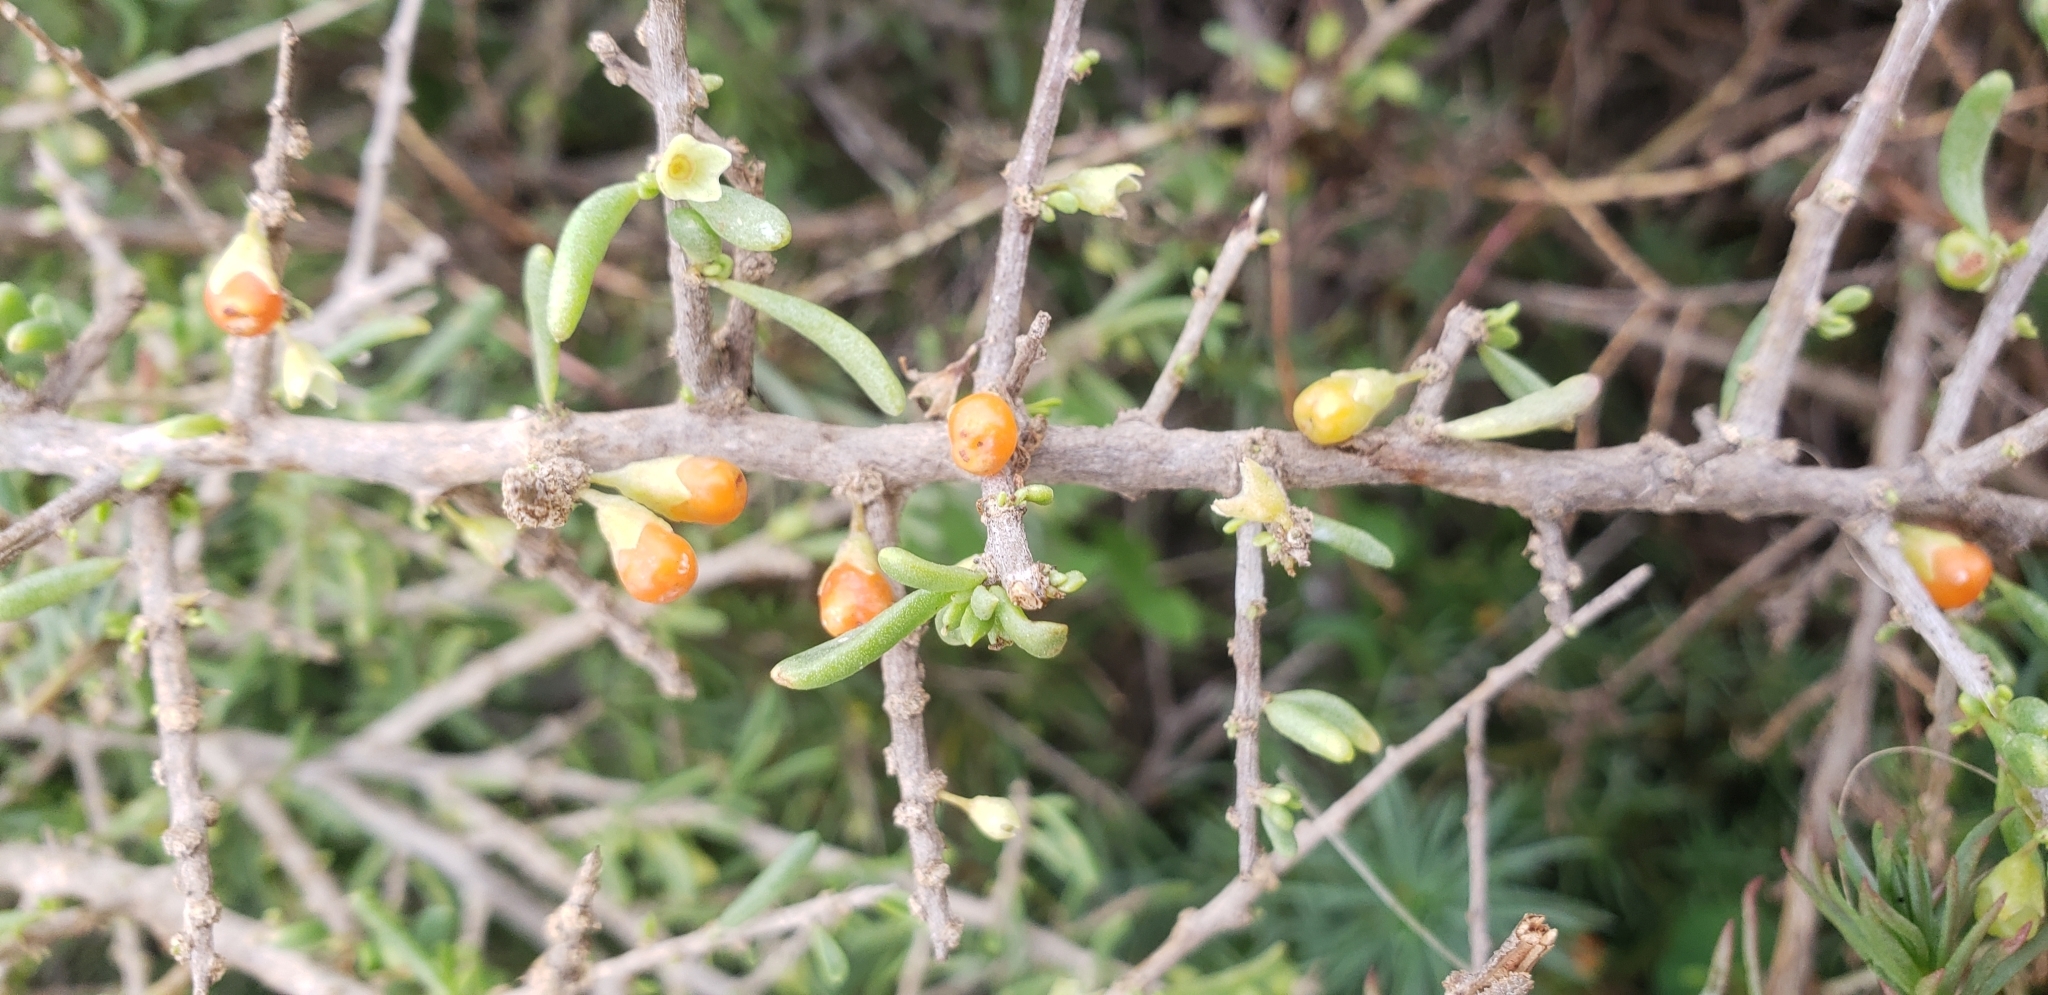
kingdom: Plantae
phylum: Tracheophyta
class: Magnoliopsida
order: Solanales
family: Solanaceae
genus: Lycium
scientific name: Lycium andersonii
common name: Water-jacket
